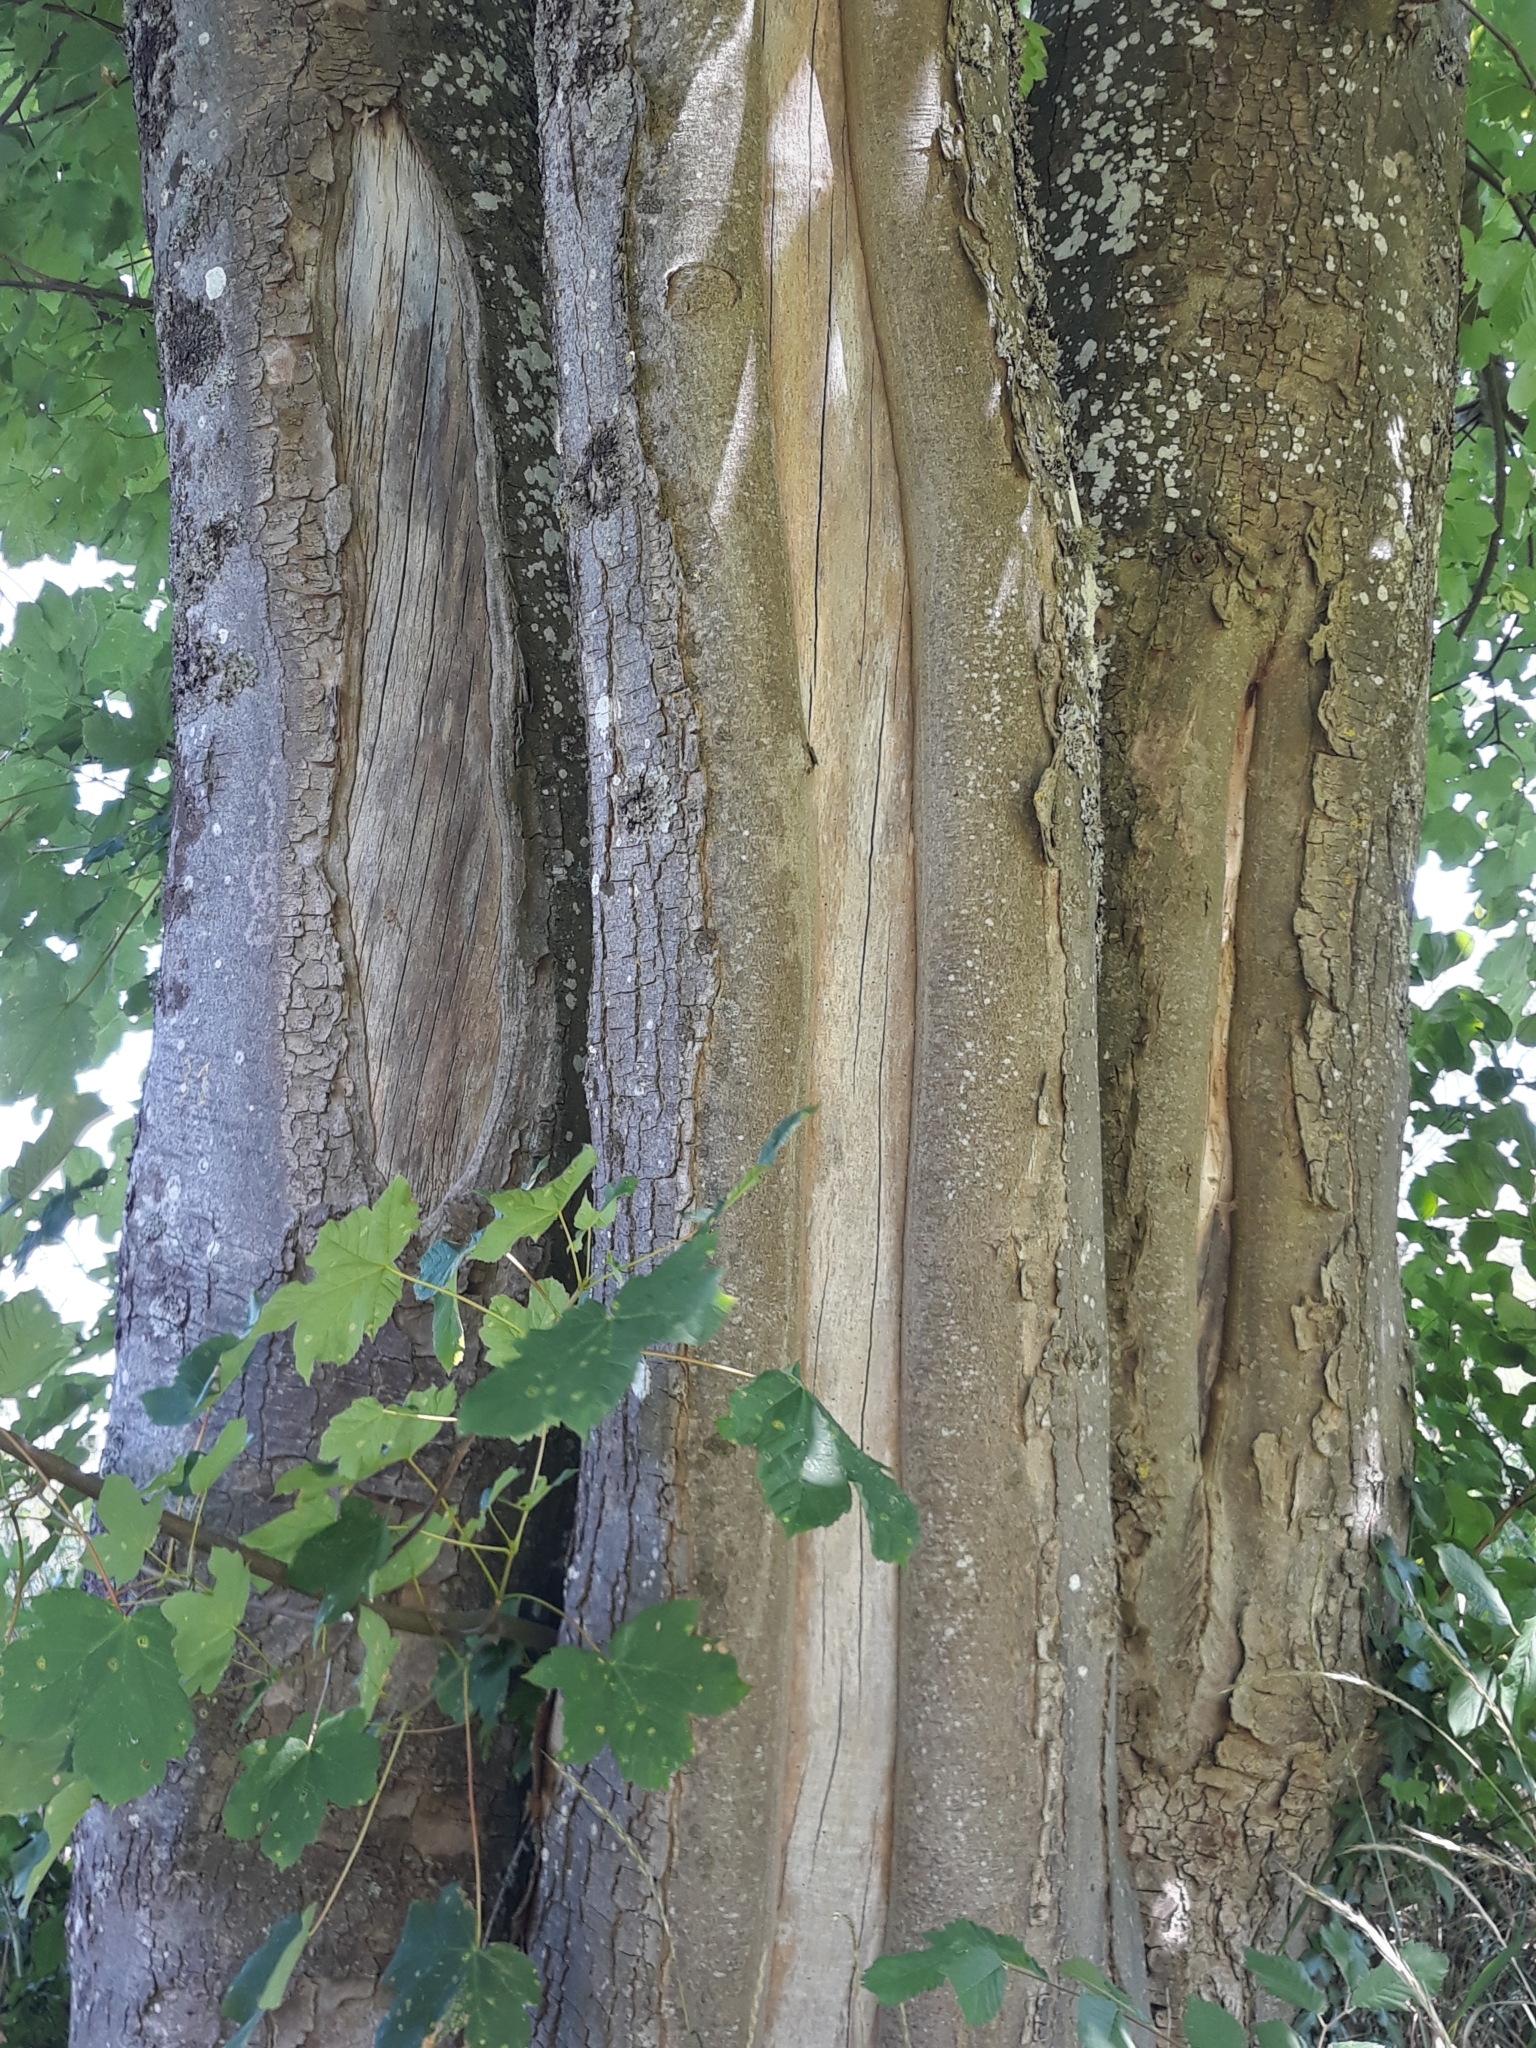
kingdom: Plantae
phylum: Tracheophyta
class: Magnoliopsida
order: Sapindales
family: Sapindaceae
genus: Acer
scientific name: Acer pseudoplatanus
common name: Sycamore
